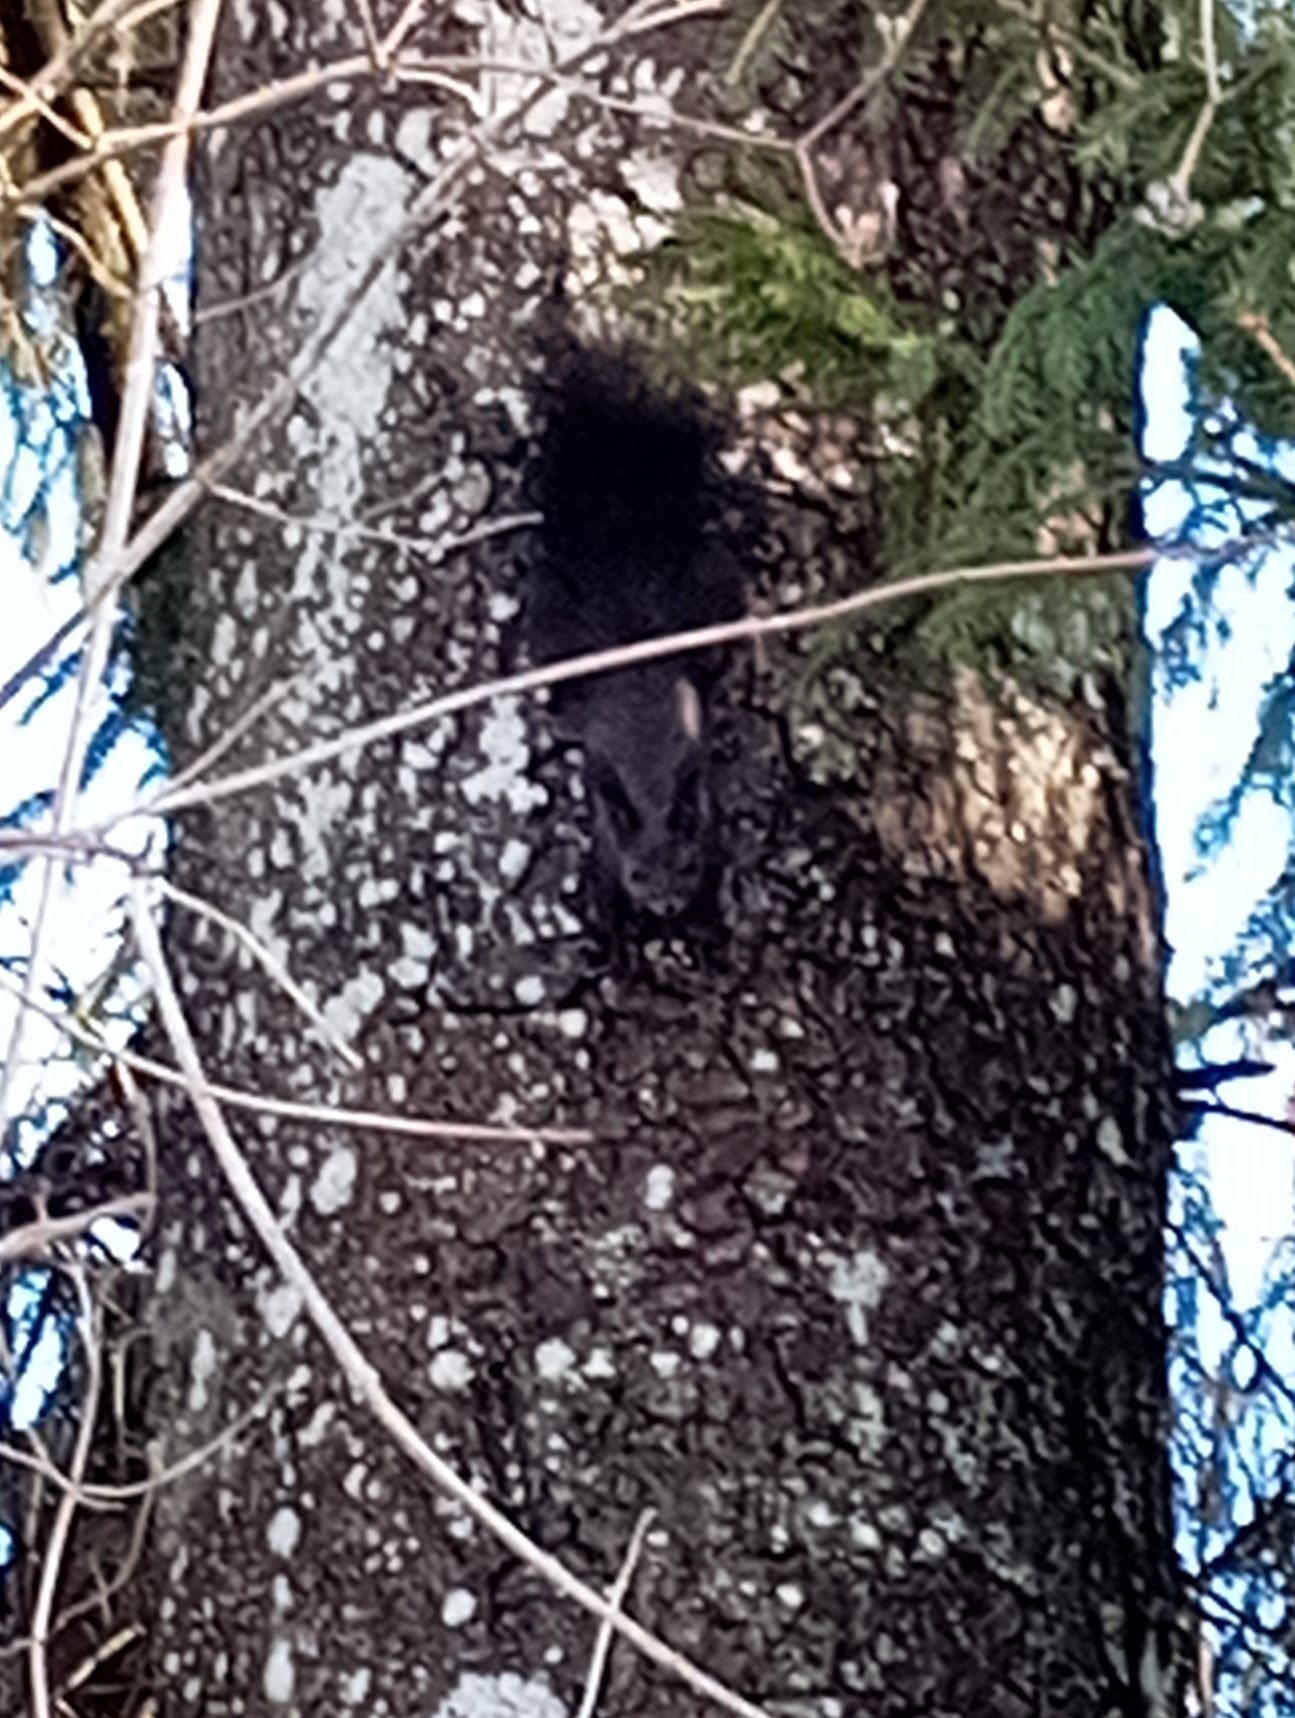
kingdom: Animalia
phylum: Chordata
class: Mammalia
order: Rodentia
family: Sciuridae
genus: Sciurus
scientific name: Sciurus vulgaris
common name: Eurasian red squirrel
